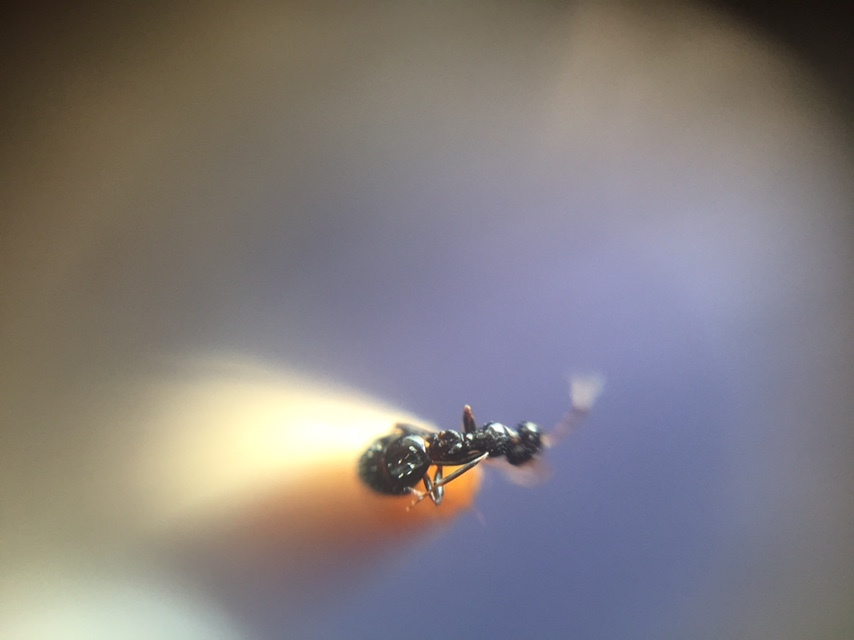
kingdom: Animalia
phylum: Arthropoda
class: Insecta
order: Hymenoptera
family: Formicidae
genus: Lepisiota
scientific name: Lepisiota modesta
